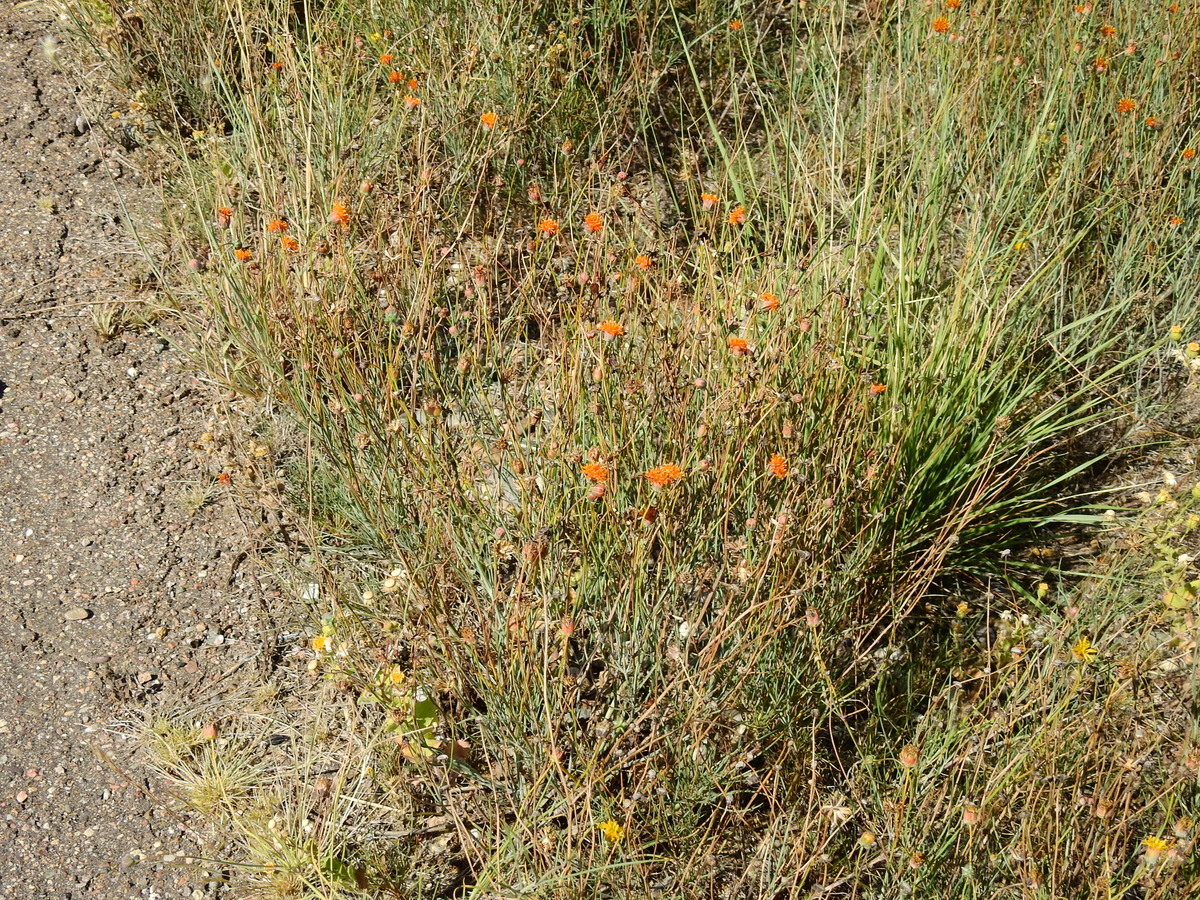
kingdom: Plantae
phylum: Tracheophyta
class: Magnoliopsida
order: Asterales
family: Asteraceae
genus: Thelesperma
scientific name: Thelesperma megapotamicum
